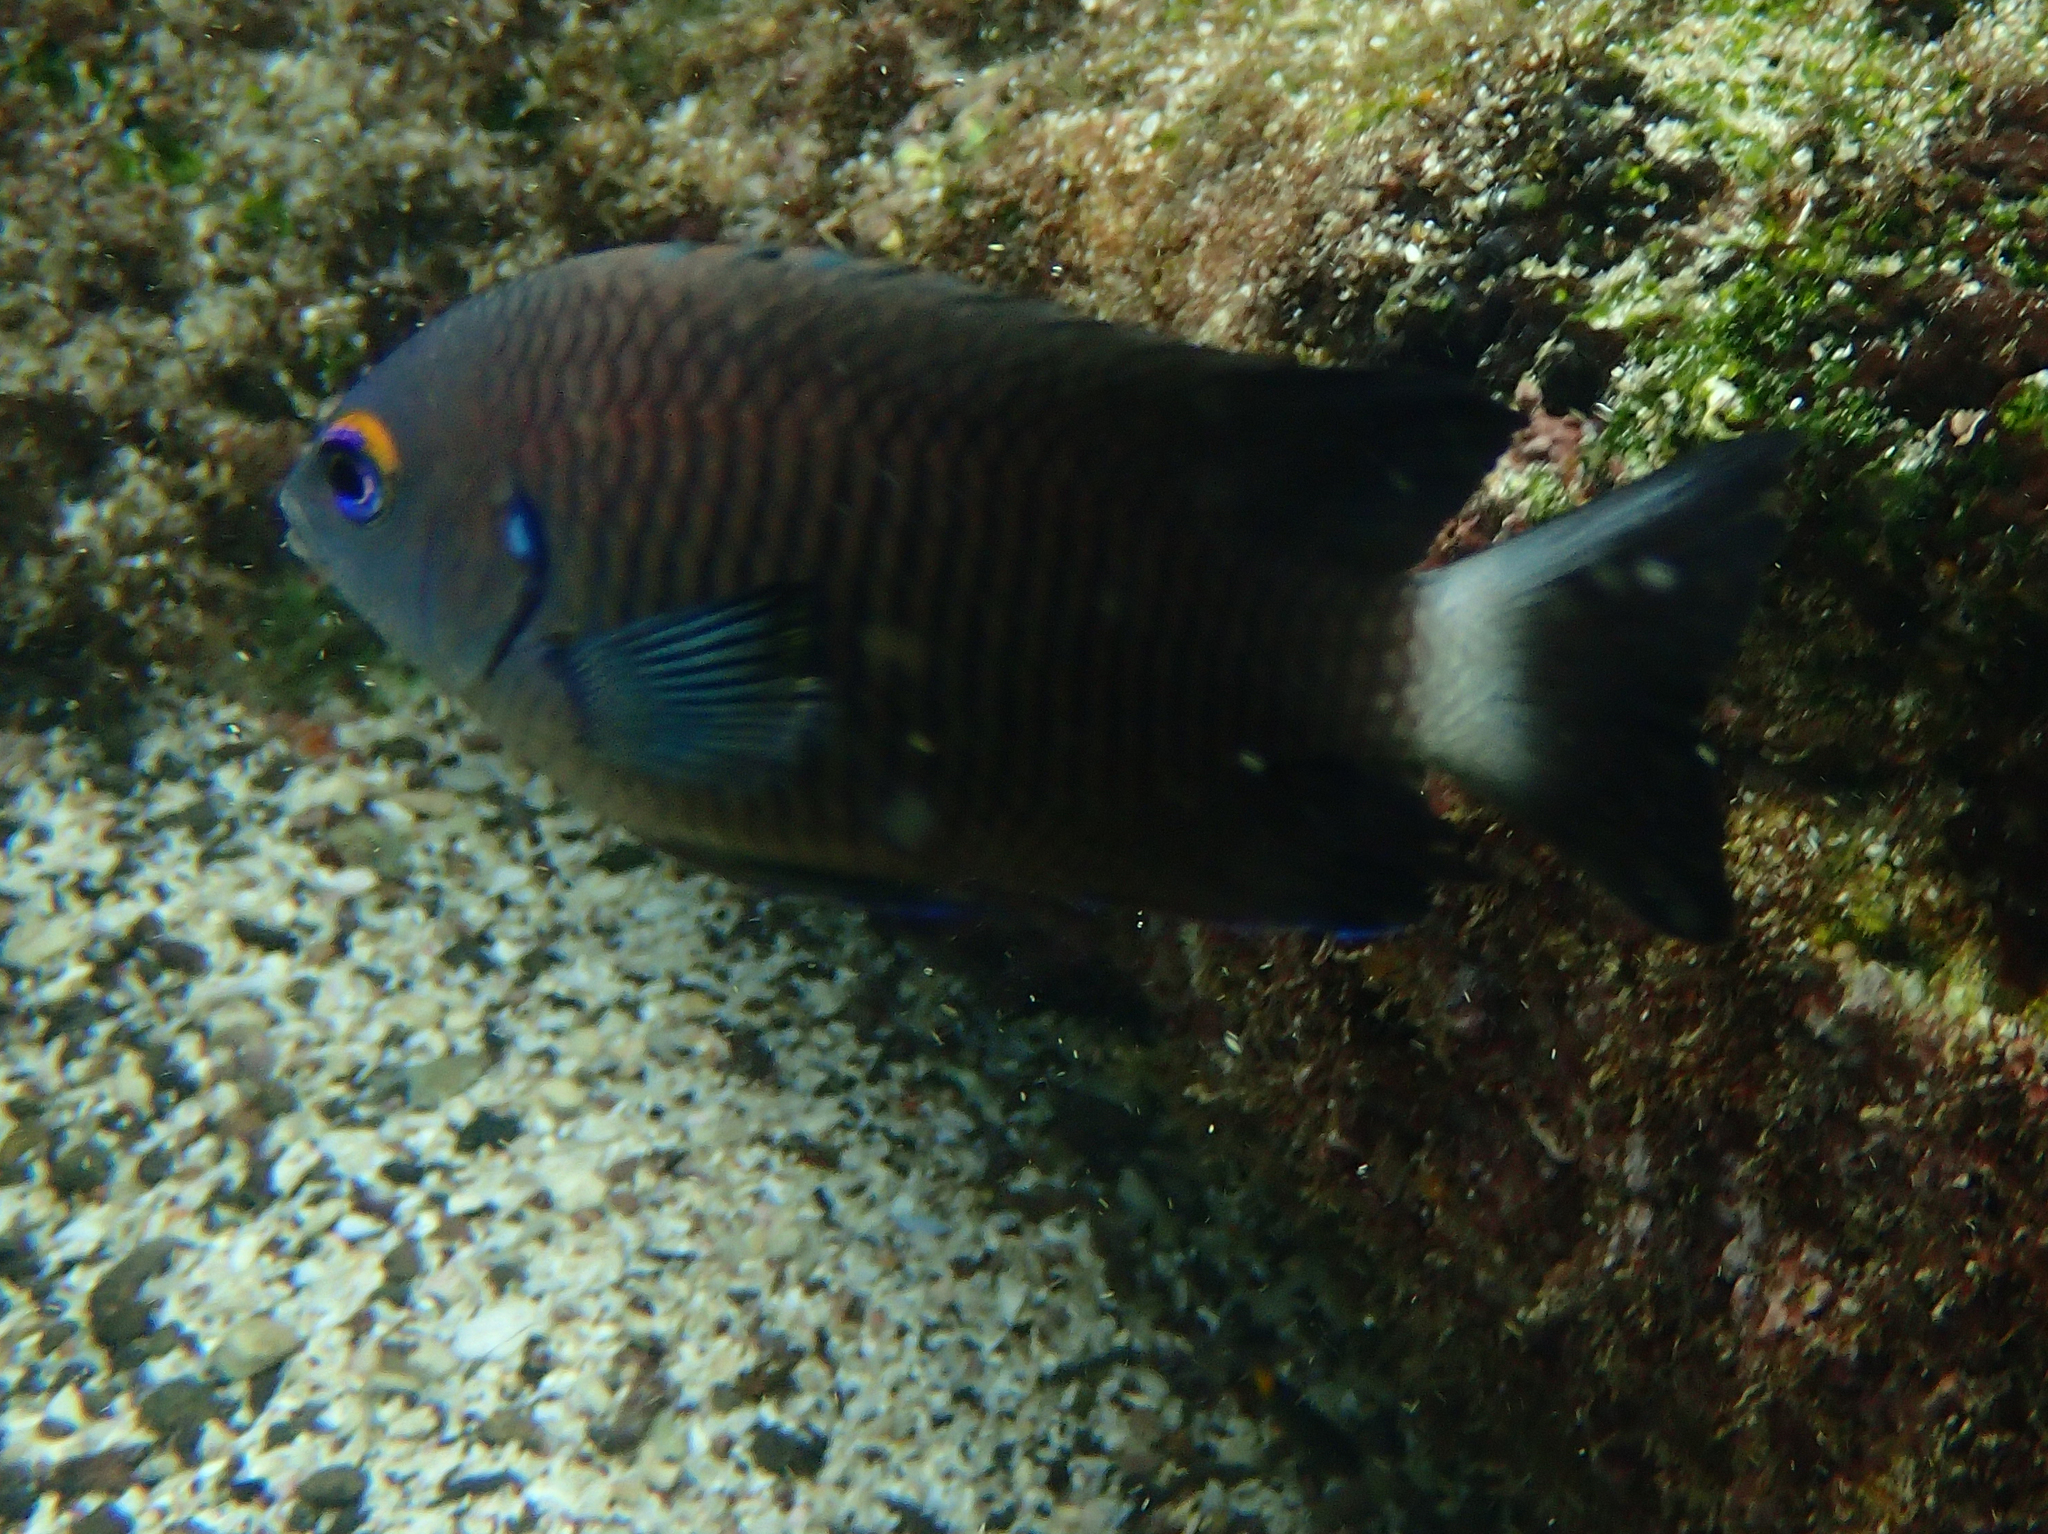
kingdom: Animalia
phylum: Chordata
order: Perciformes
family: Pomacentridae
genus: Stegastes
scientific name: Stegastes beebei
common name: Galapagos ringtail damselfish
